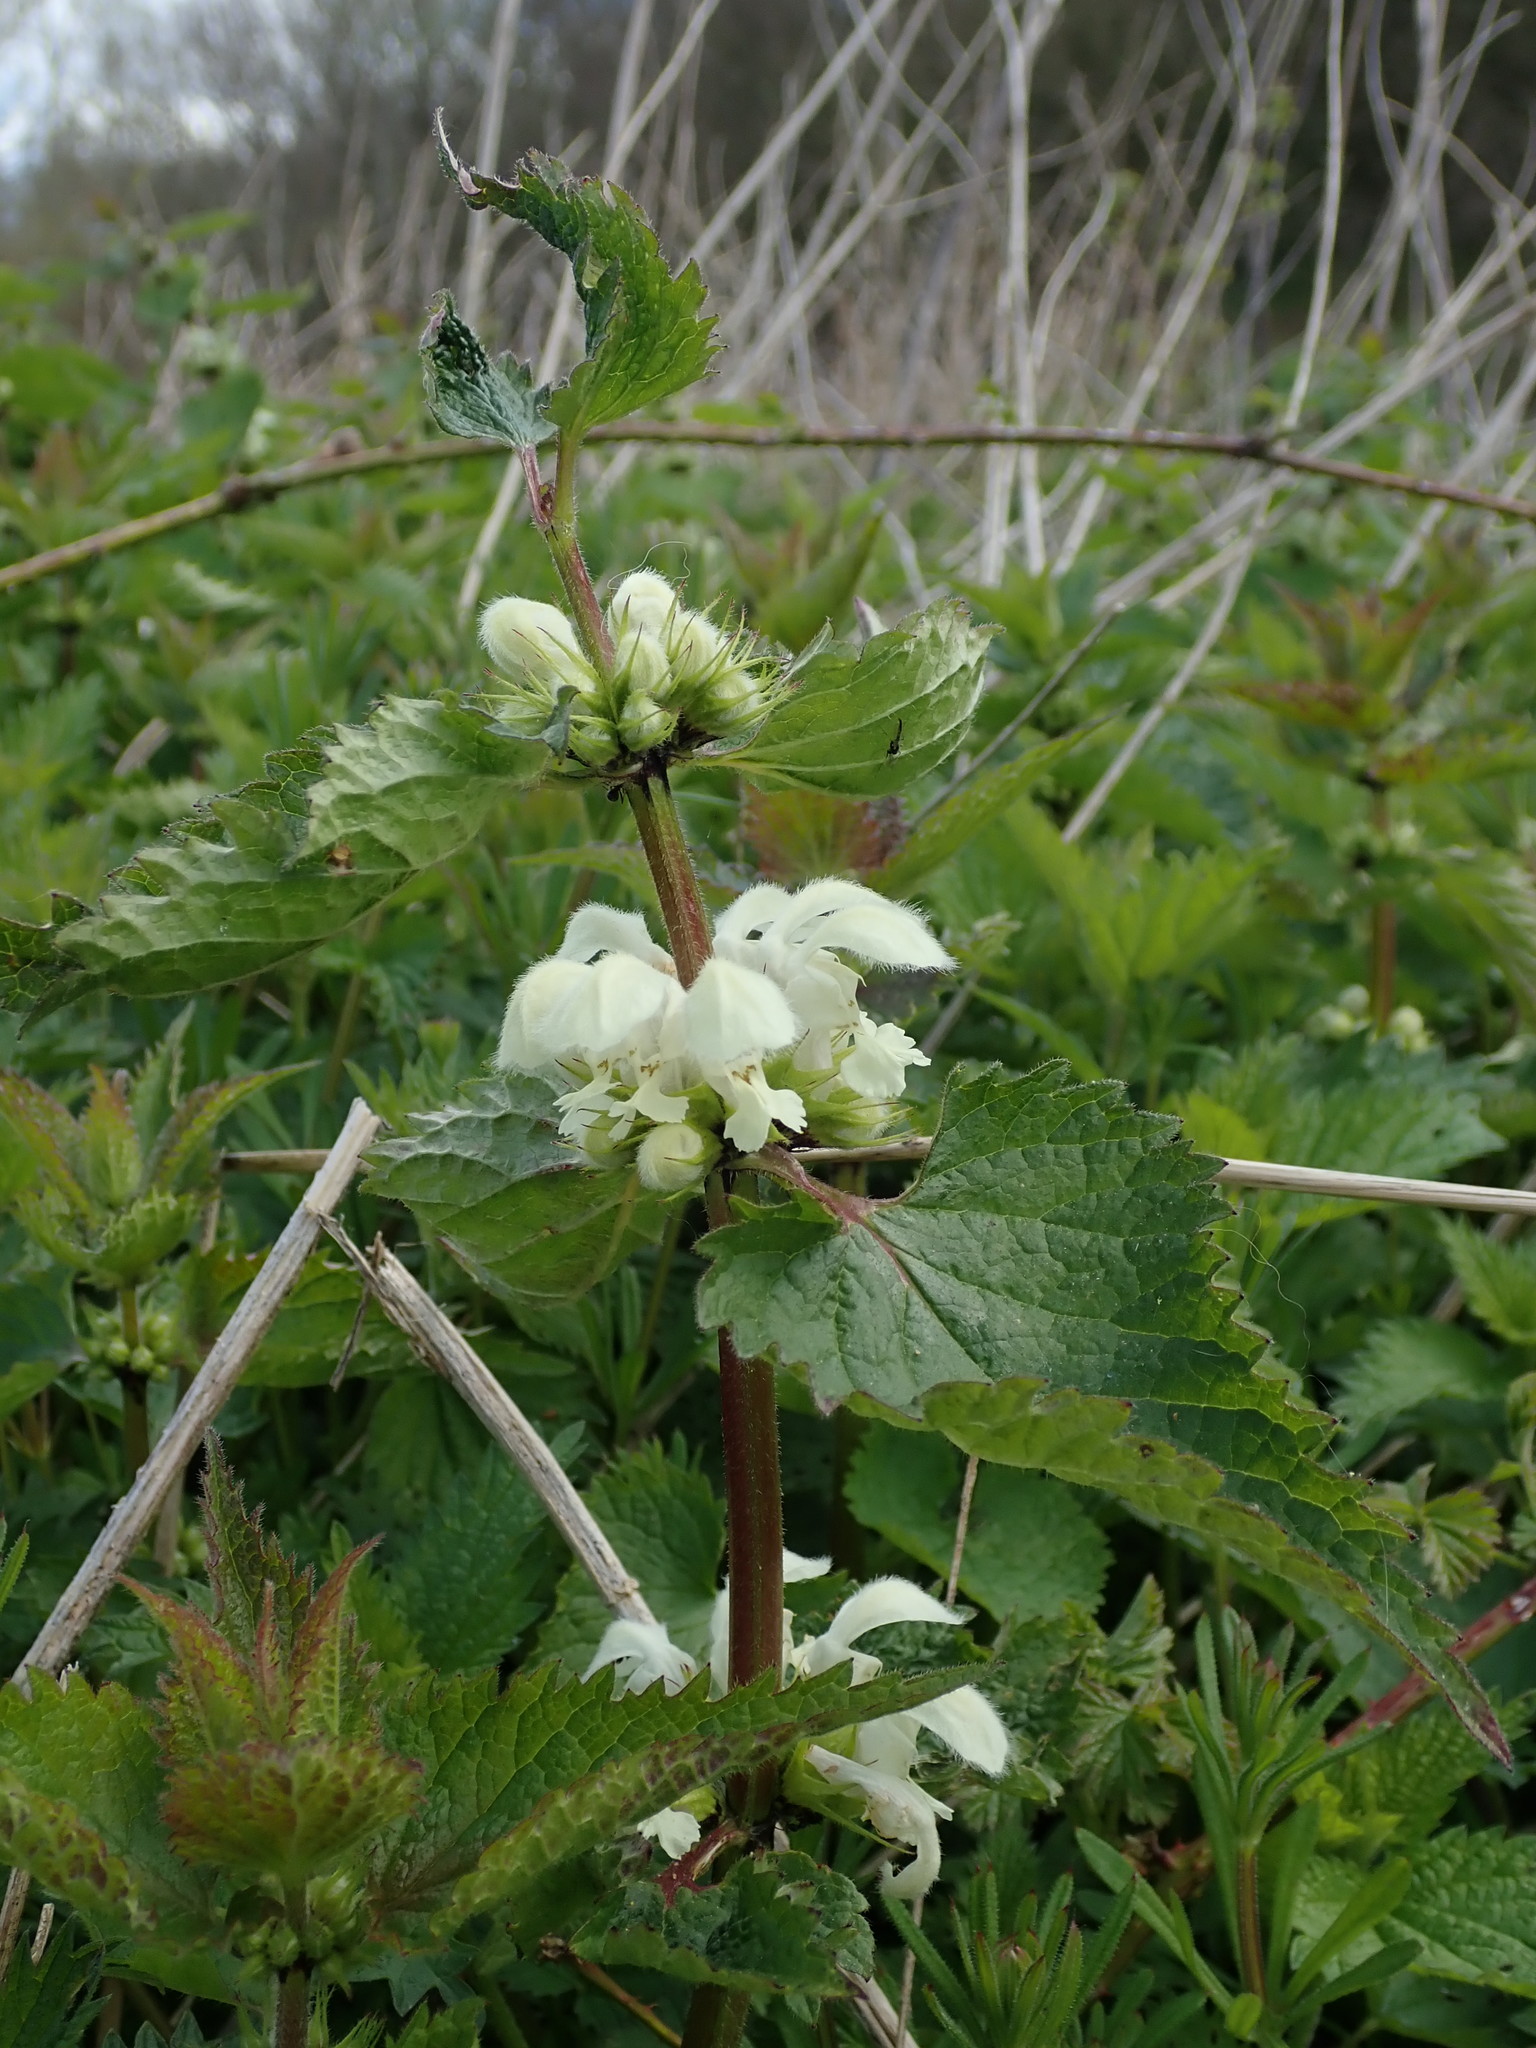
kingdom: Plantae
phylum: Tracheophyta
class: Magnoliopsida
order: Lamiales
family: Lamiaceae
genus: Lamium
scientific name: Lamium album
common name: White dead-nettle
